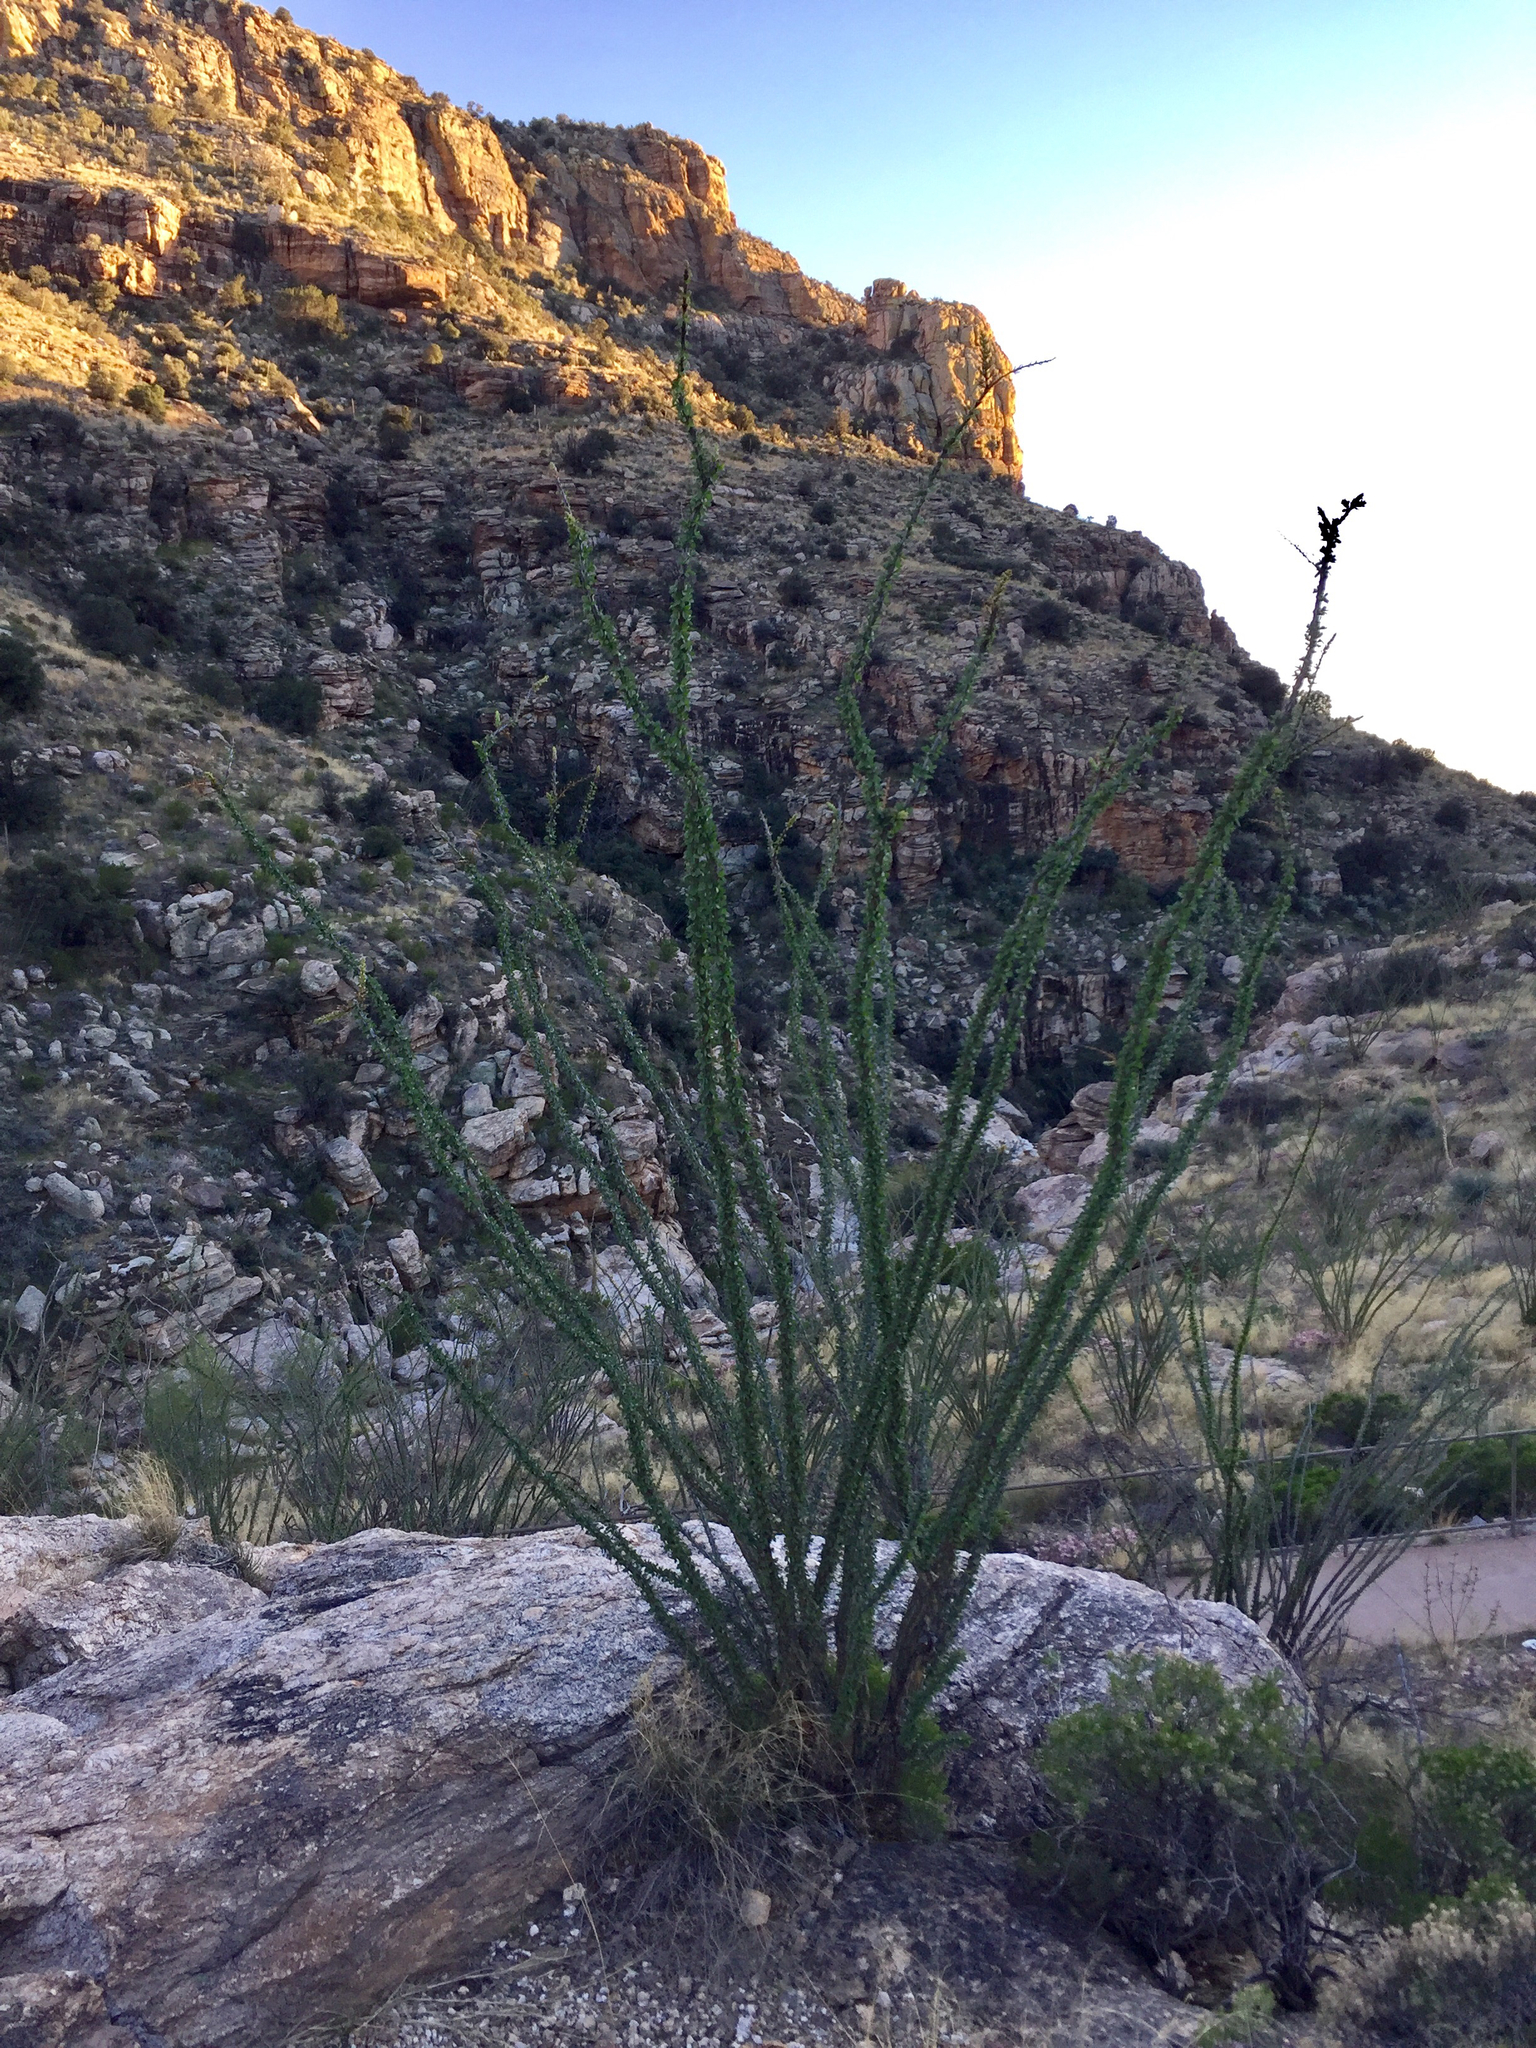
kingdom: Plantae
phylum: Tracheophyta
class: Magnoliopsida
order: Ericales
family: Fouquieriaceae
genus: Fouquieria
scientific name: Fouquieria splendens
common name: Vine-cactus
